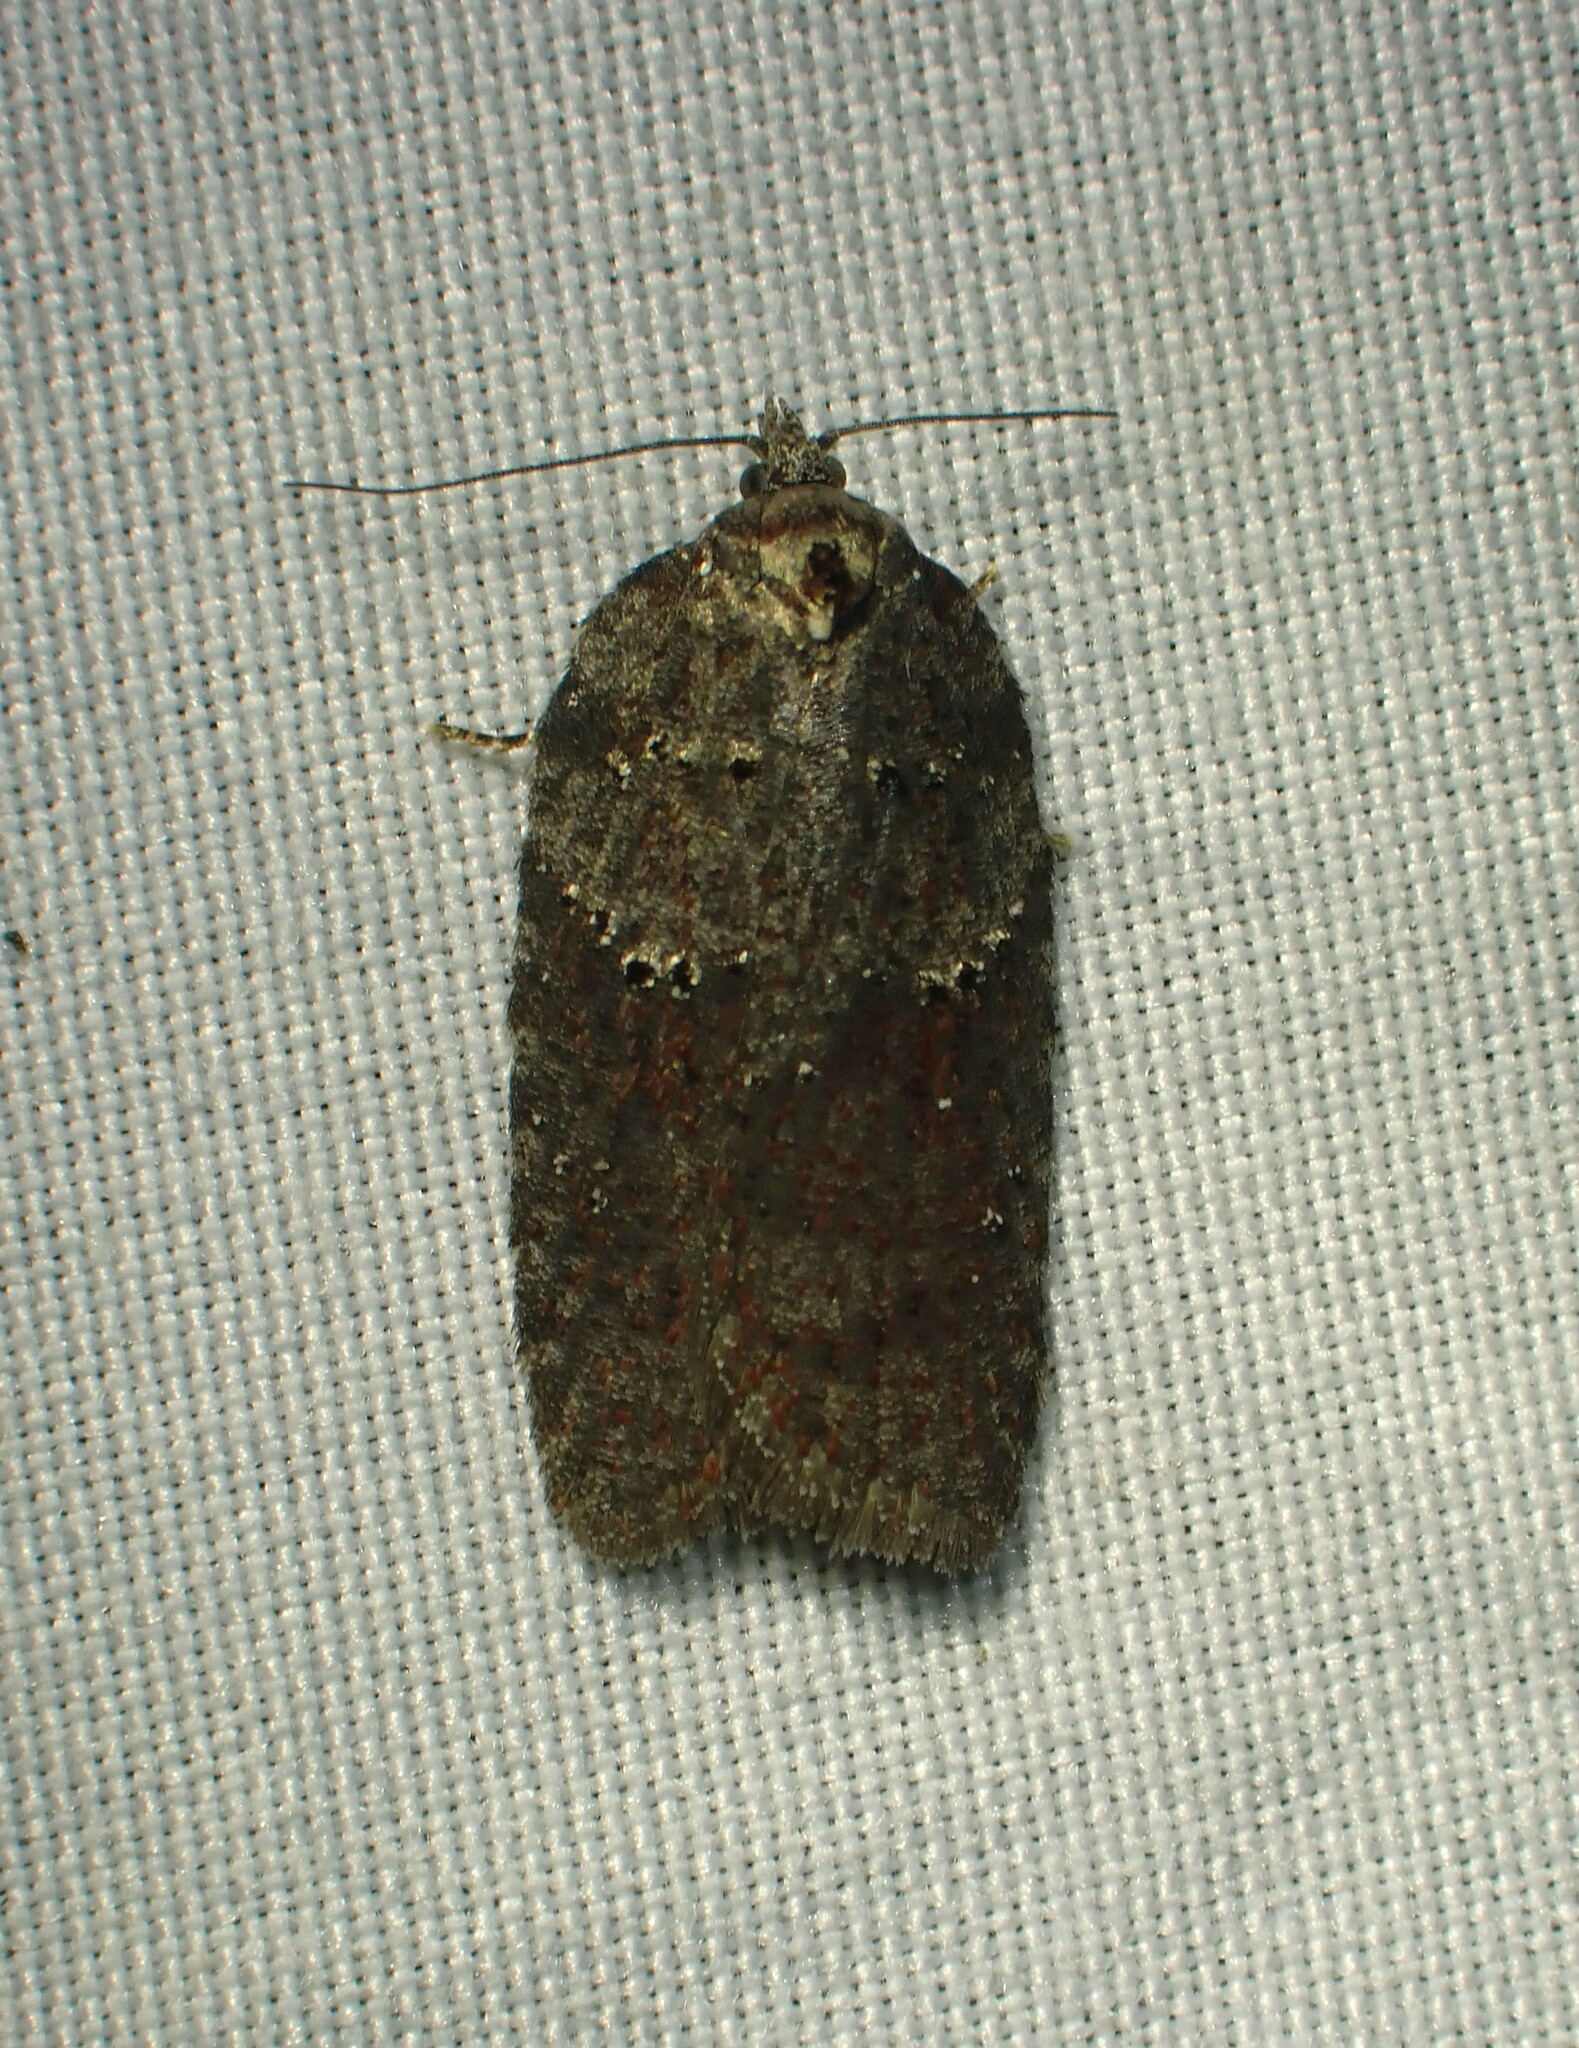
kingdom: Animalia
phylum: Arthropoda
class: Insecta
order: Lepidoptera
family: Tortricidae
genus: Acleris
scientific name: Acleris caliginosana
